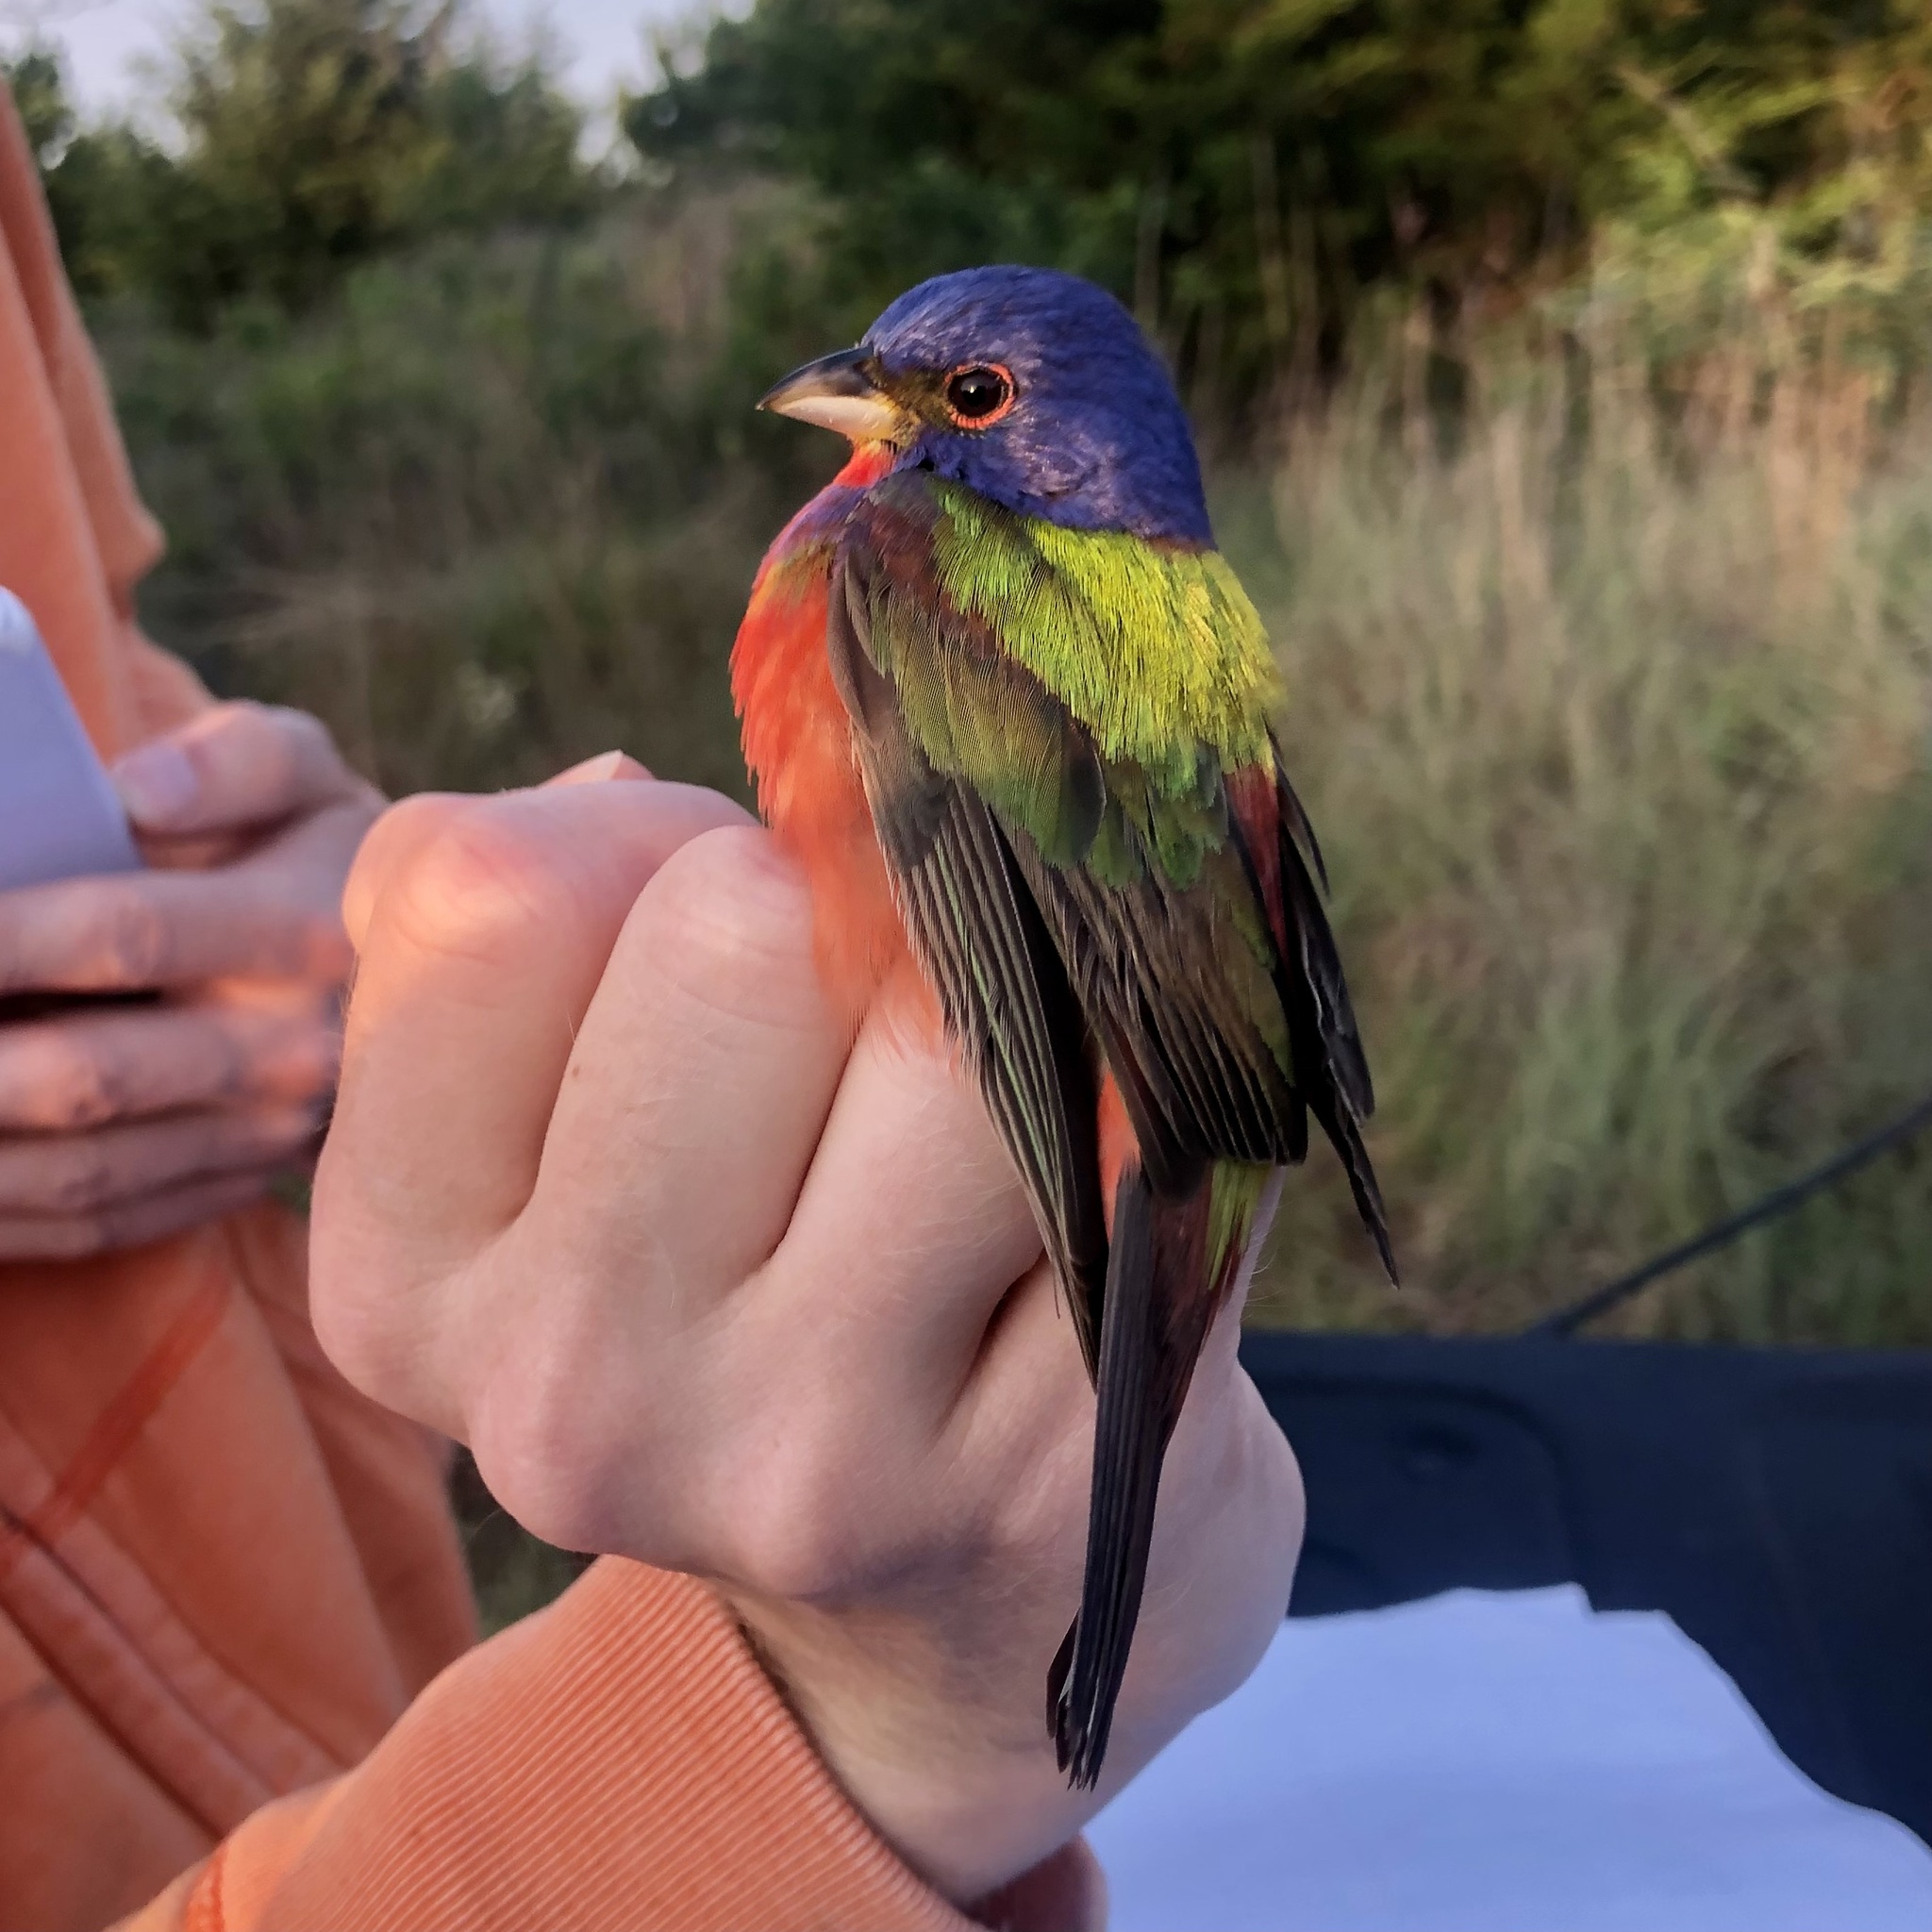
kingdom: Animalia
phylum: Chordata
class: Aves
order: Passeriformes
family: Cardinalidae
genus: Passerina
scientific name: Passerina ciris
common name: Painted bunting
